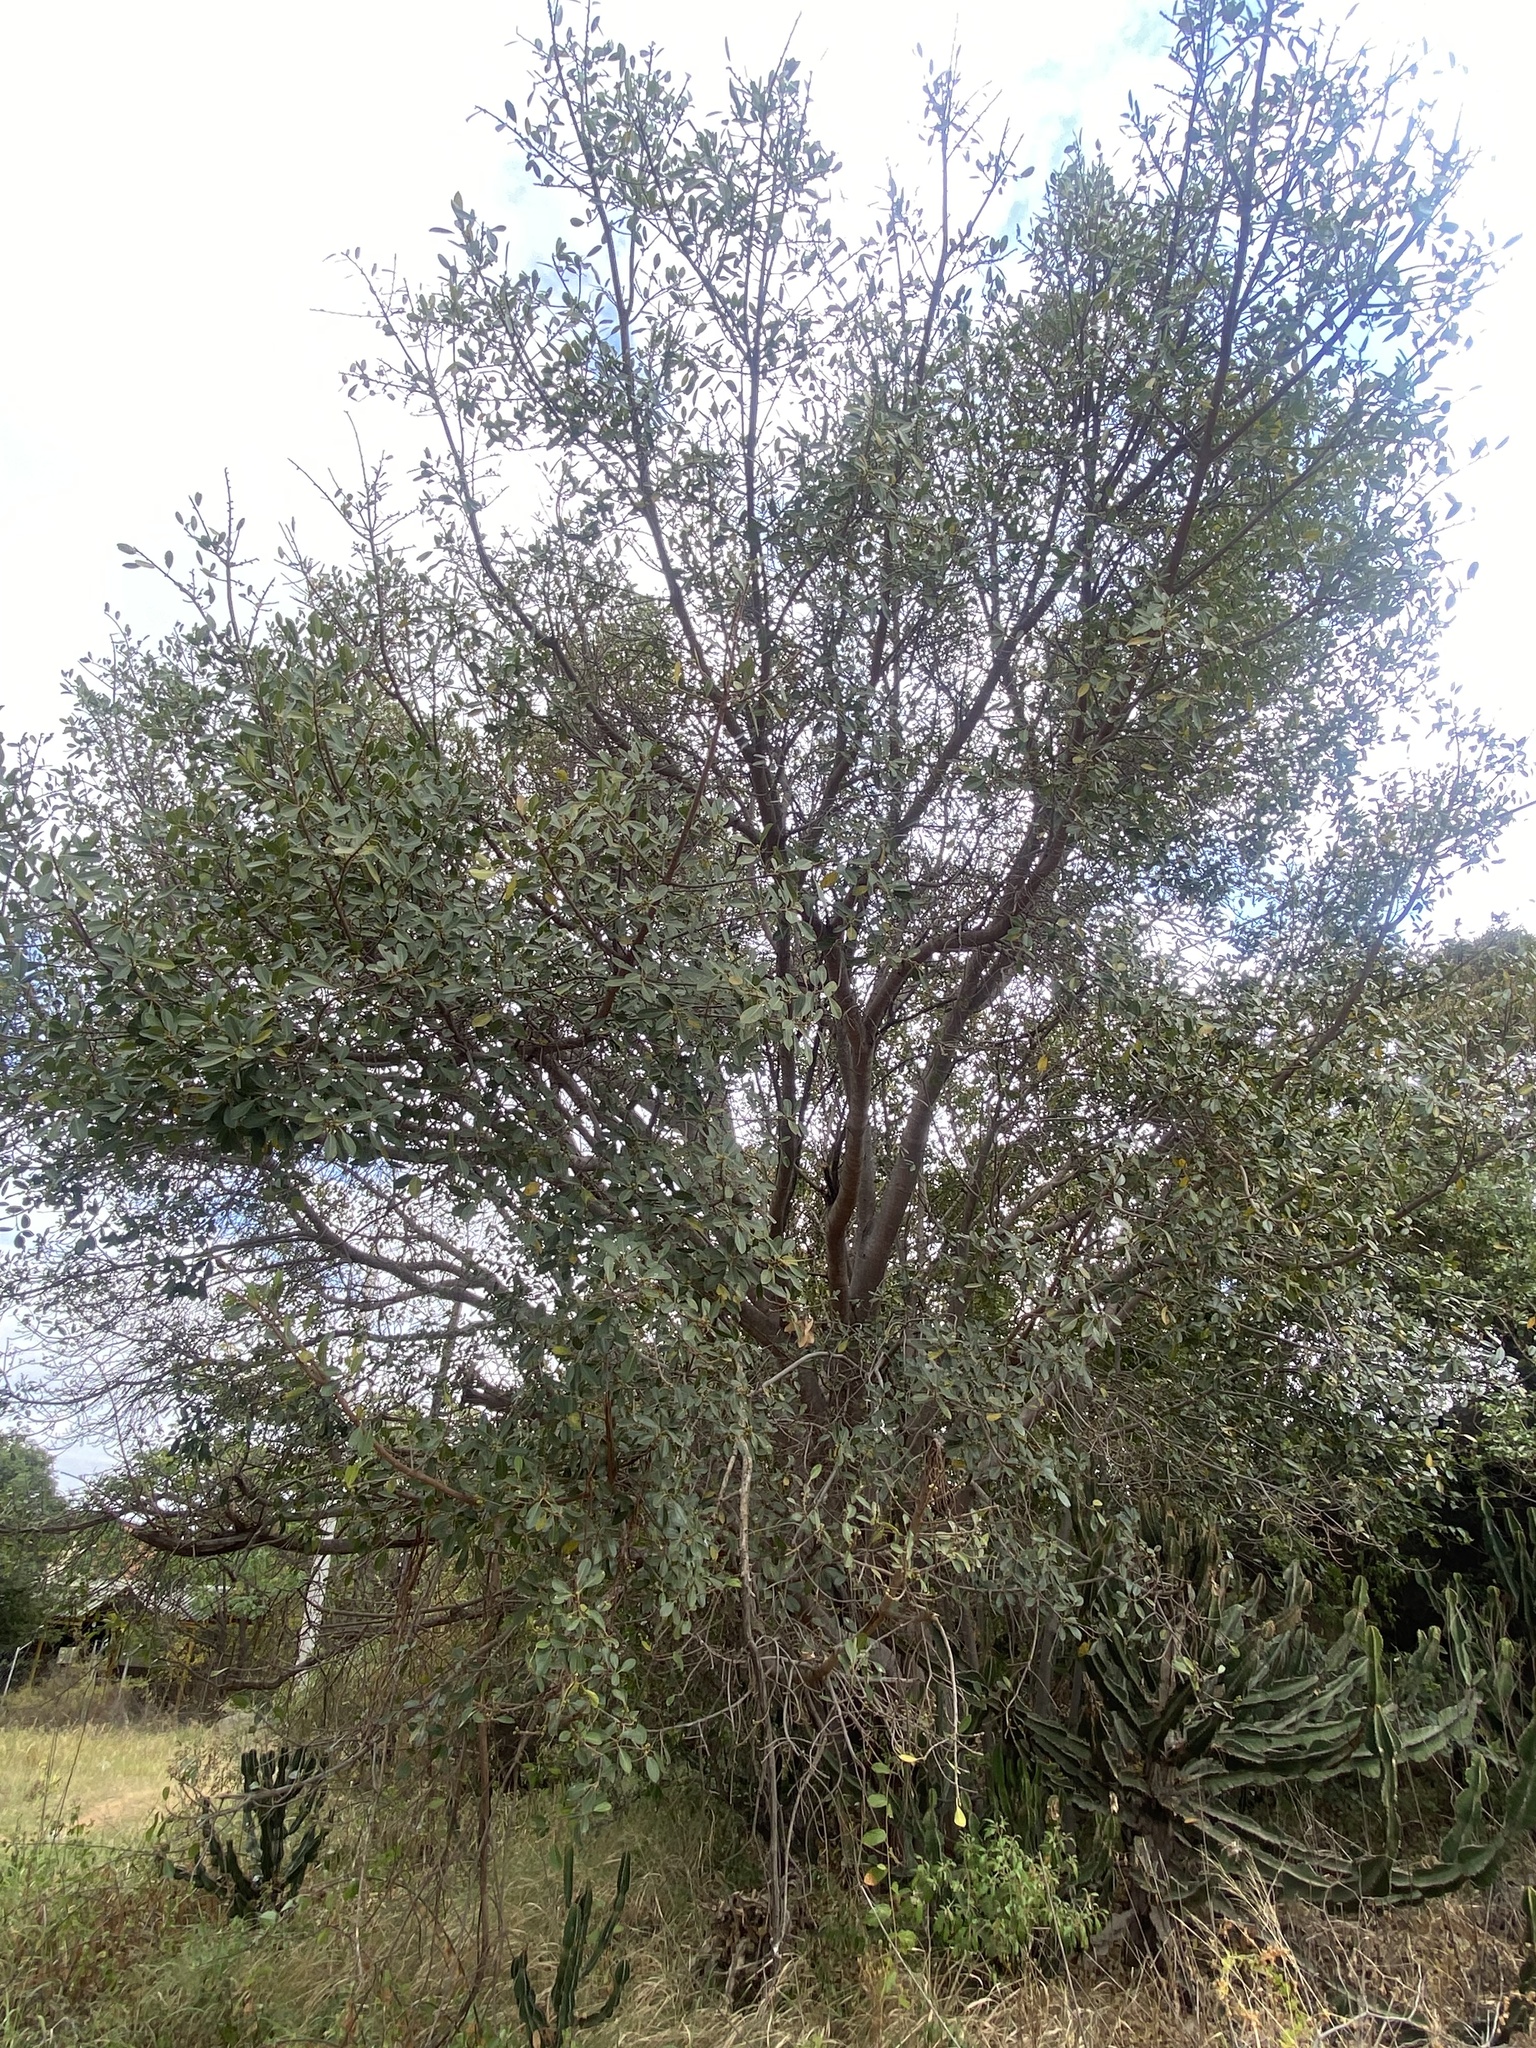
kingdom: Plantae
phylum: Tracheophyta
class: Magnoliopsida
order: Rosales
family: Moraceae
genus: Ficus
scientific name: Ficus thonningii
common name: Fig
